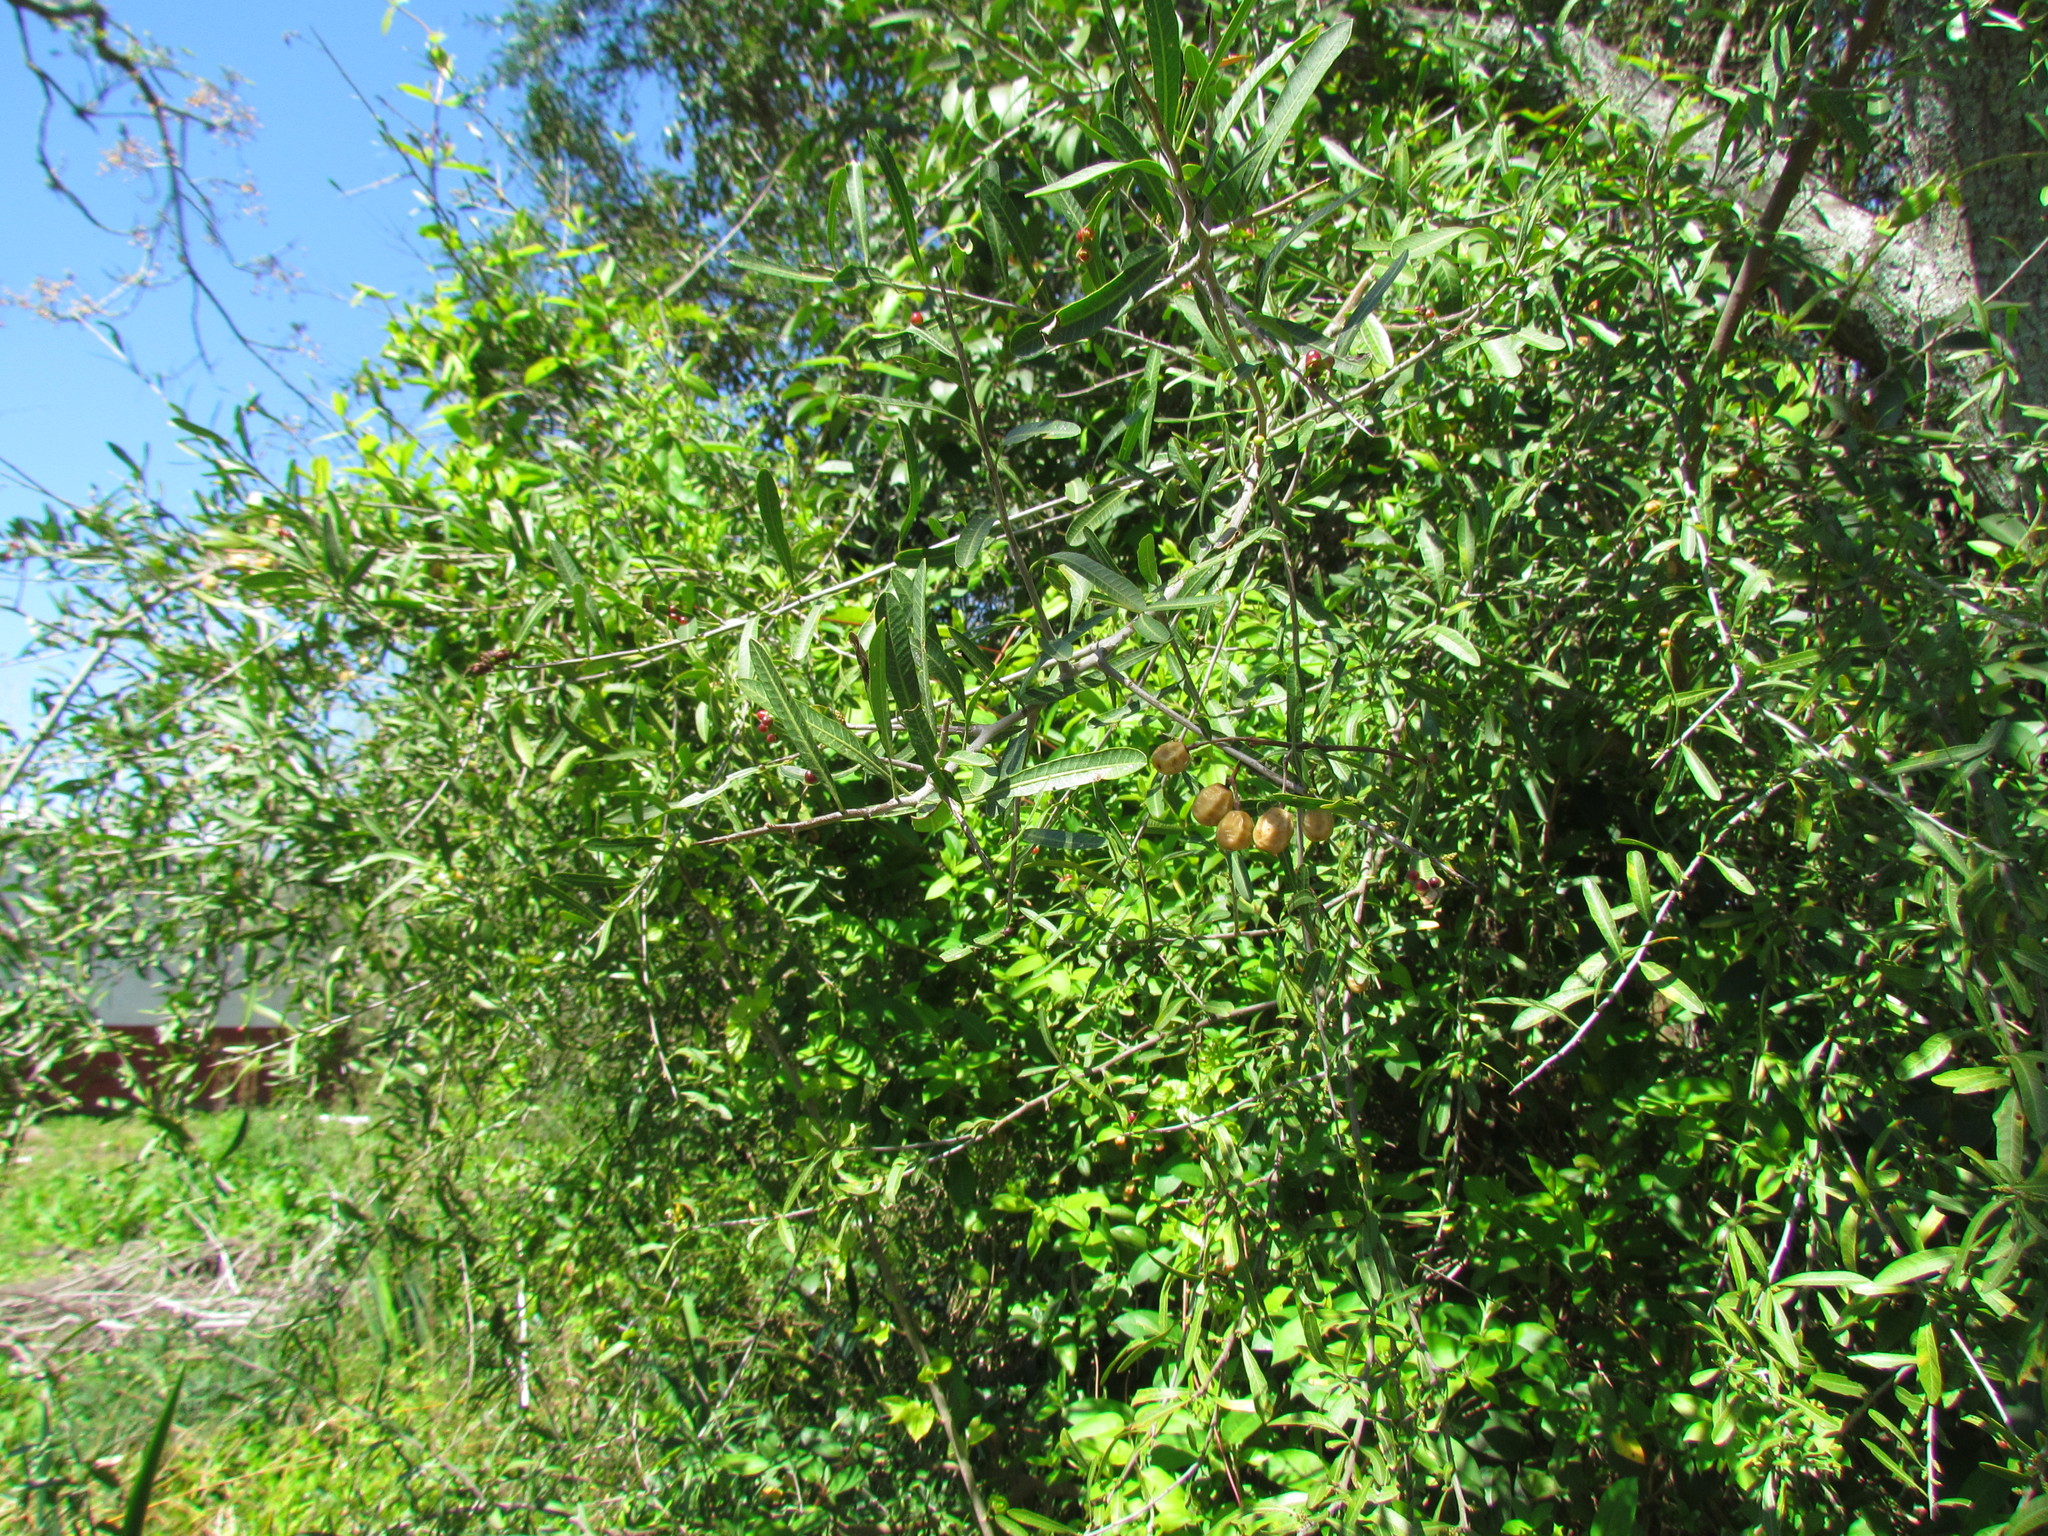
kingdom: Plantae
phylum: Tracheophyta
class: Magnoliopsida
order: Sapindales
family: Anacardiaceae
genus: Schinus
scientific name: Schinus longifolia
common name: Longleaf peppertree
